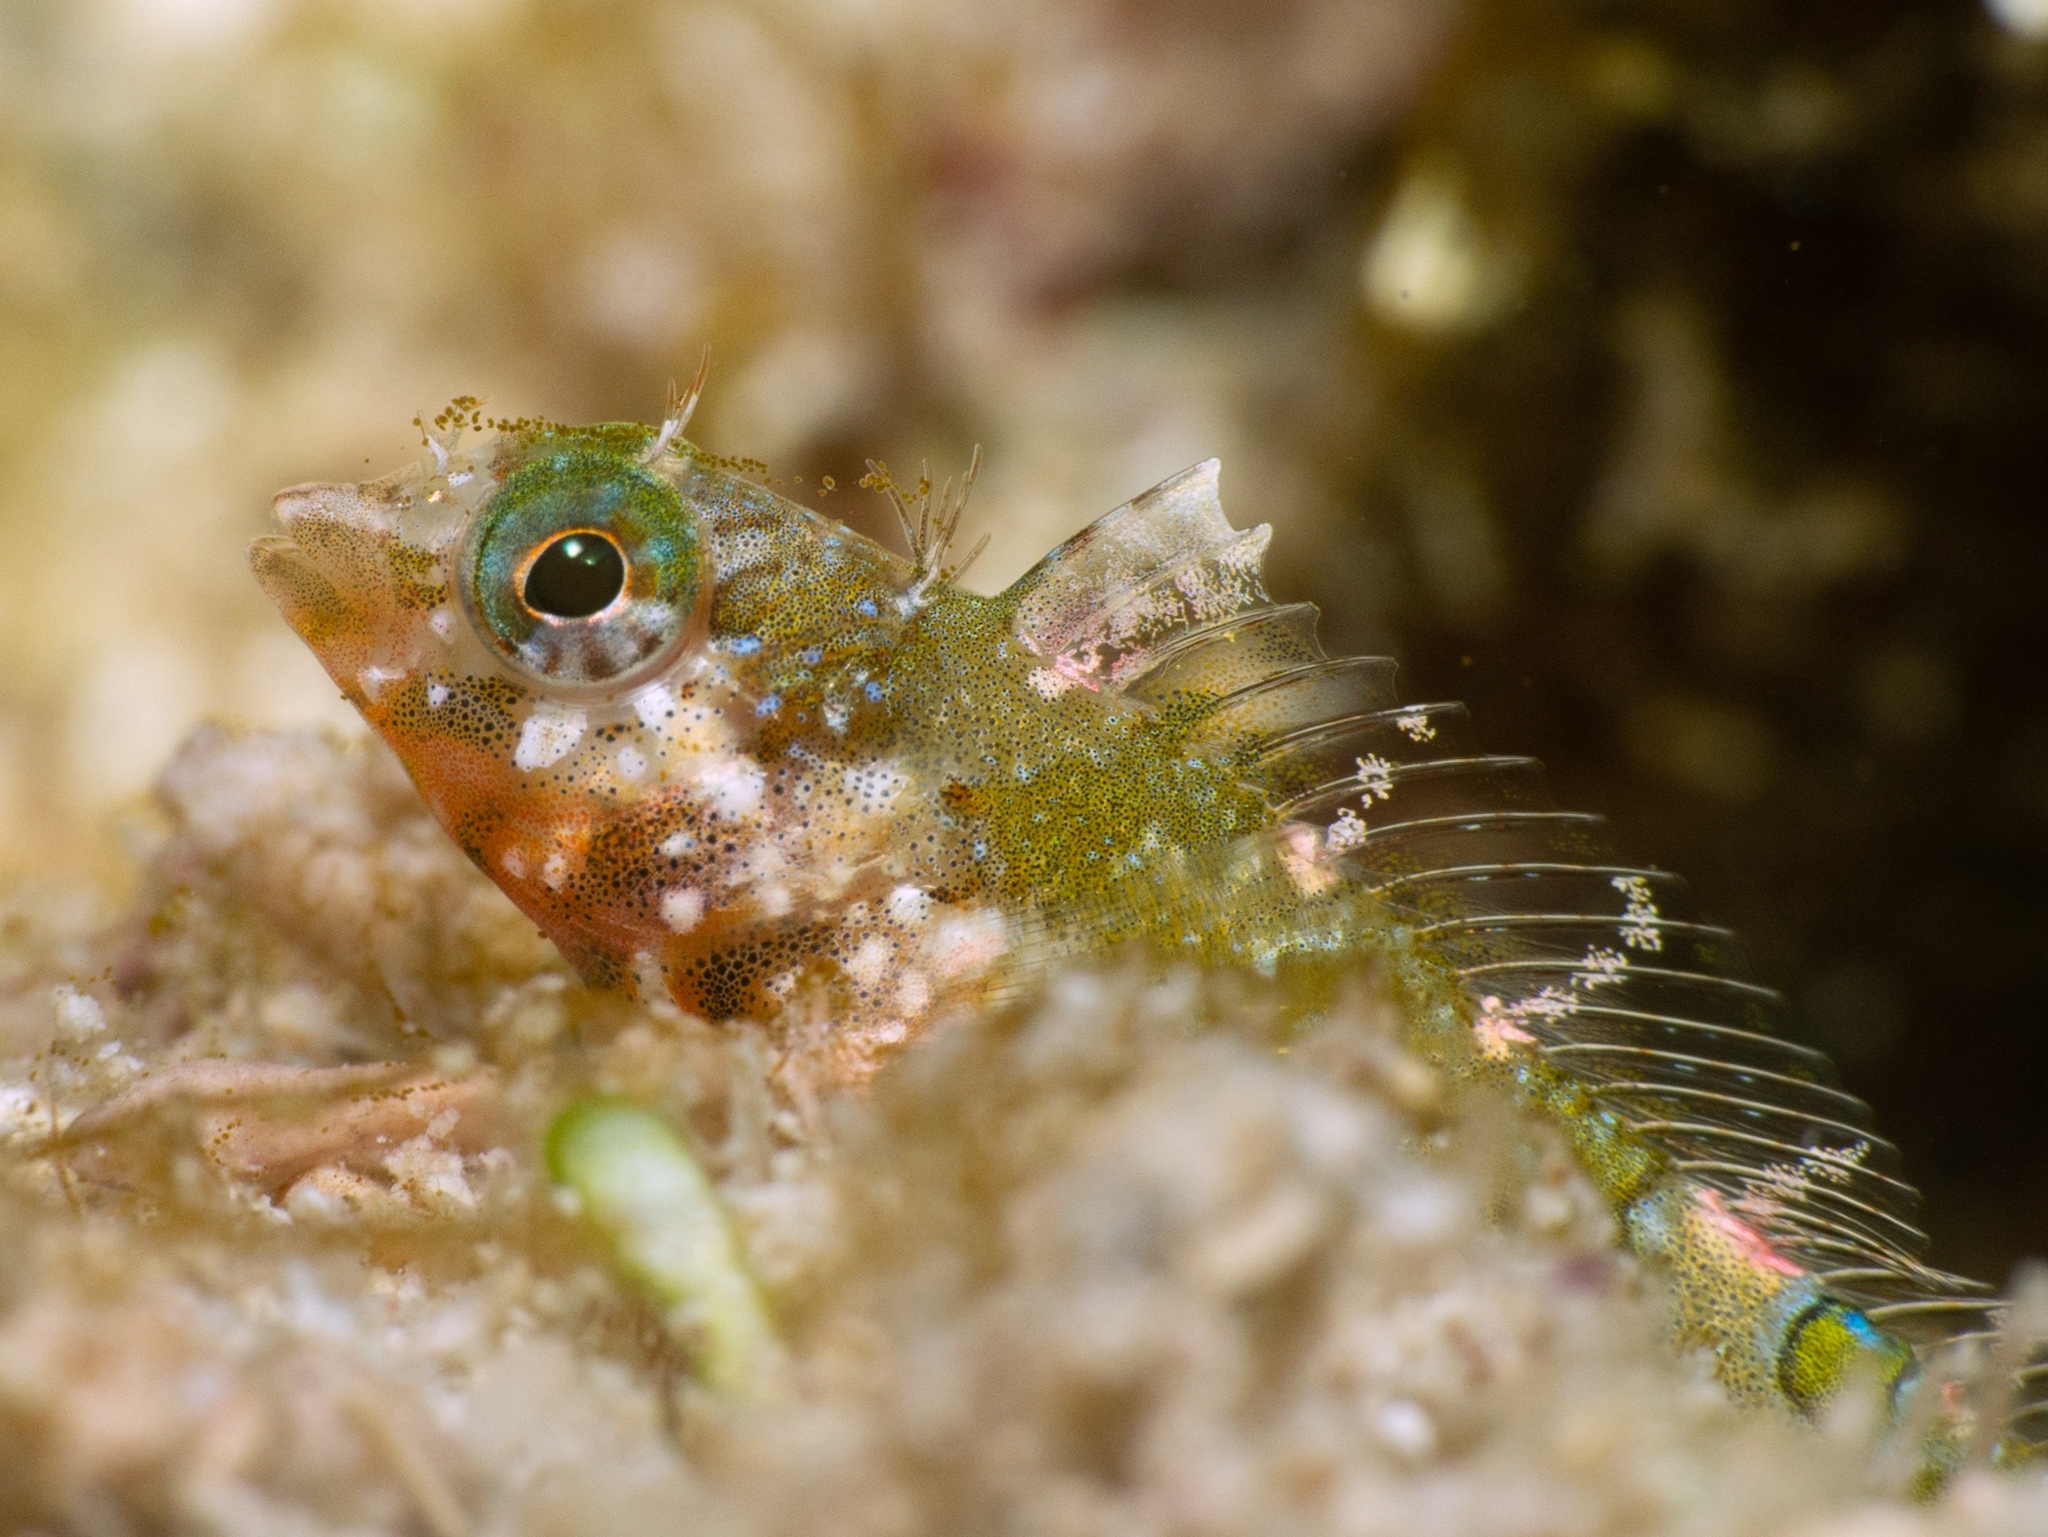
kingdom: Animalia
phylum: Chordata
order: Perciformes
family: Labrisomidae
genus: Malacoctenus
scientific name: Malacoctenus erdmani
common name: Imitator blenny
